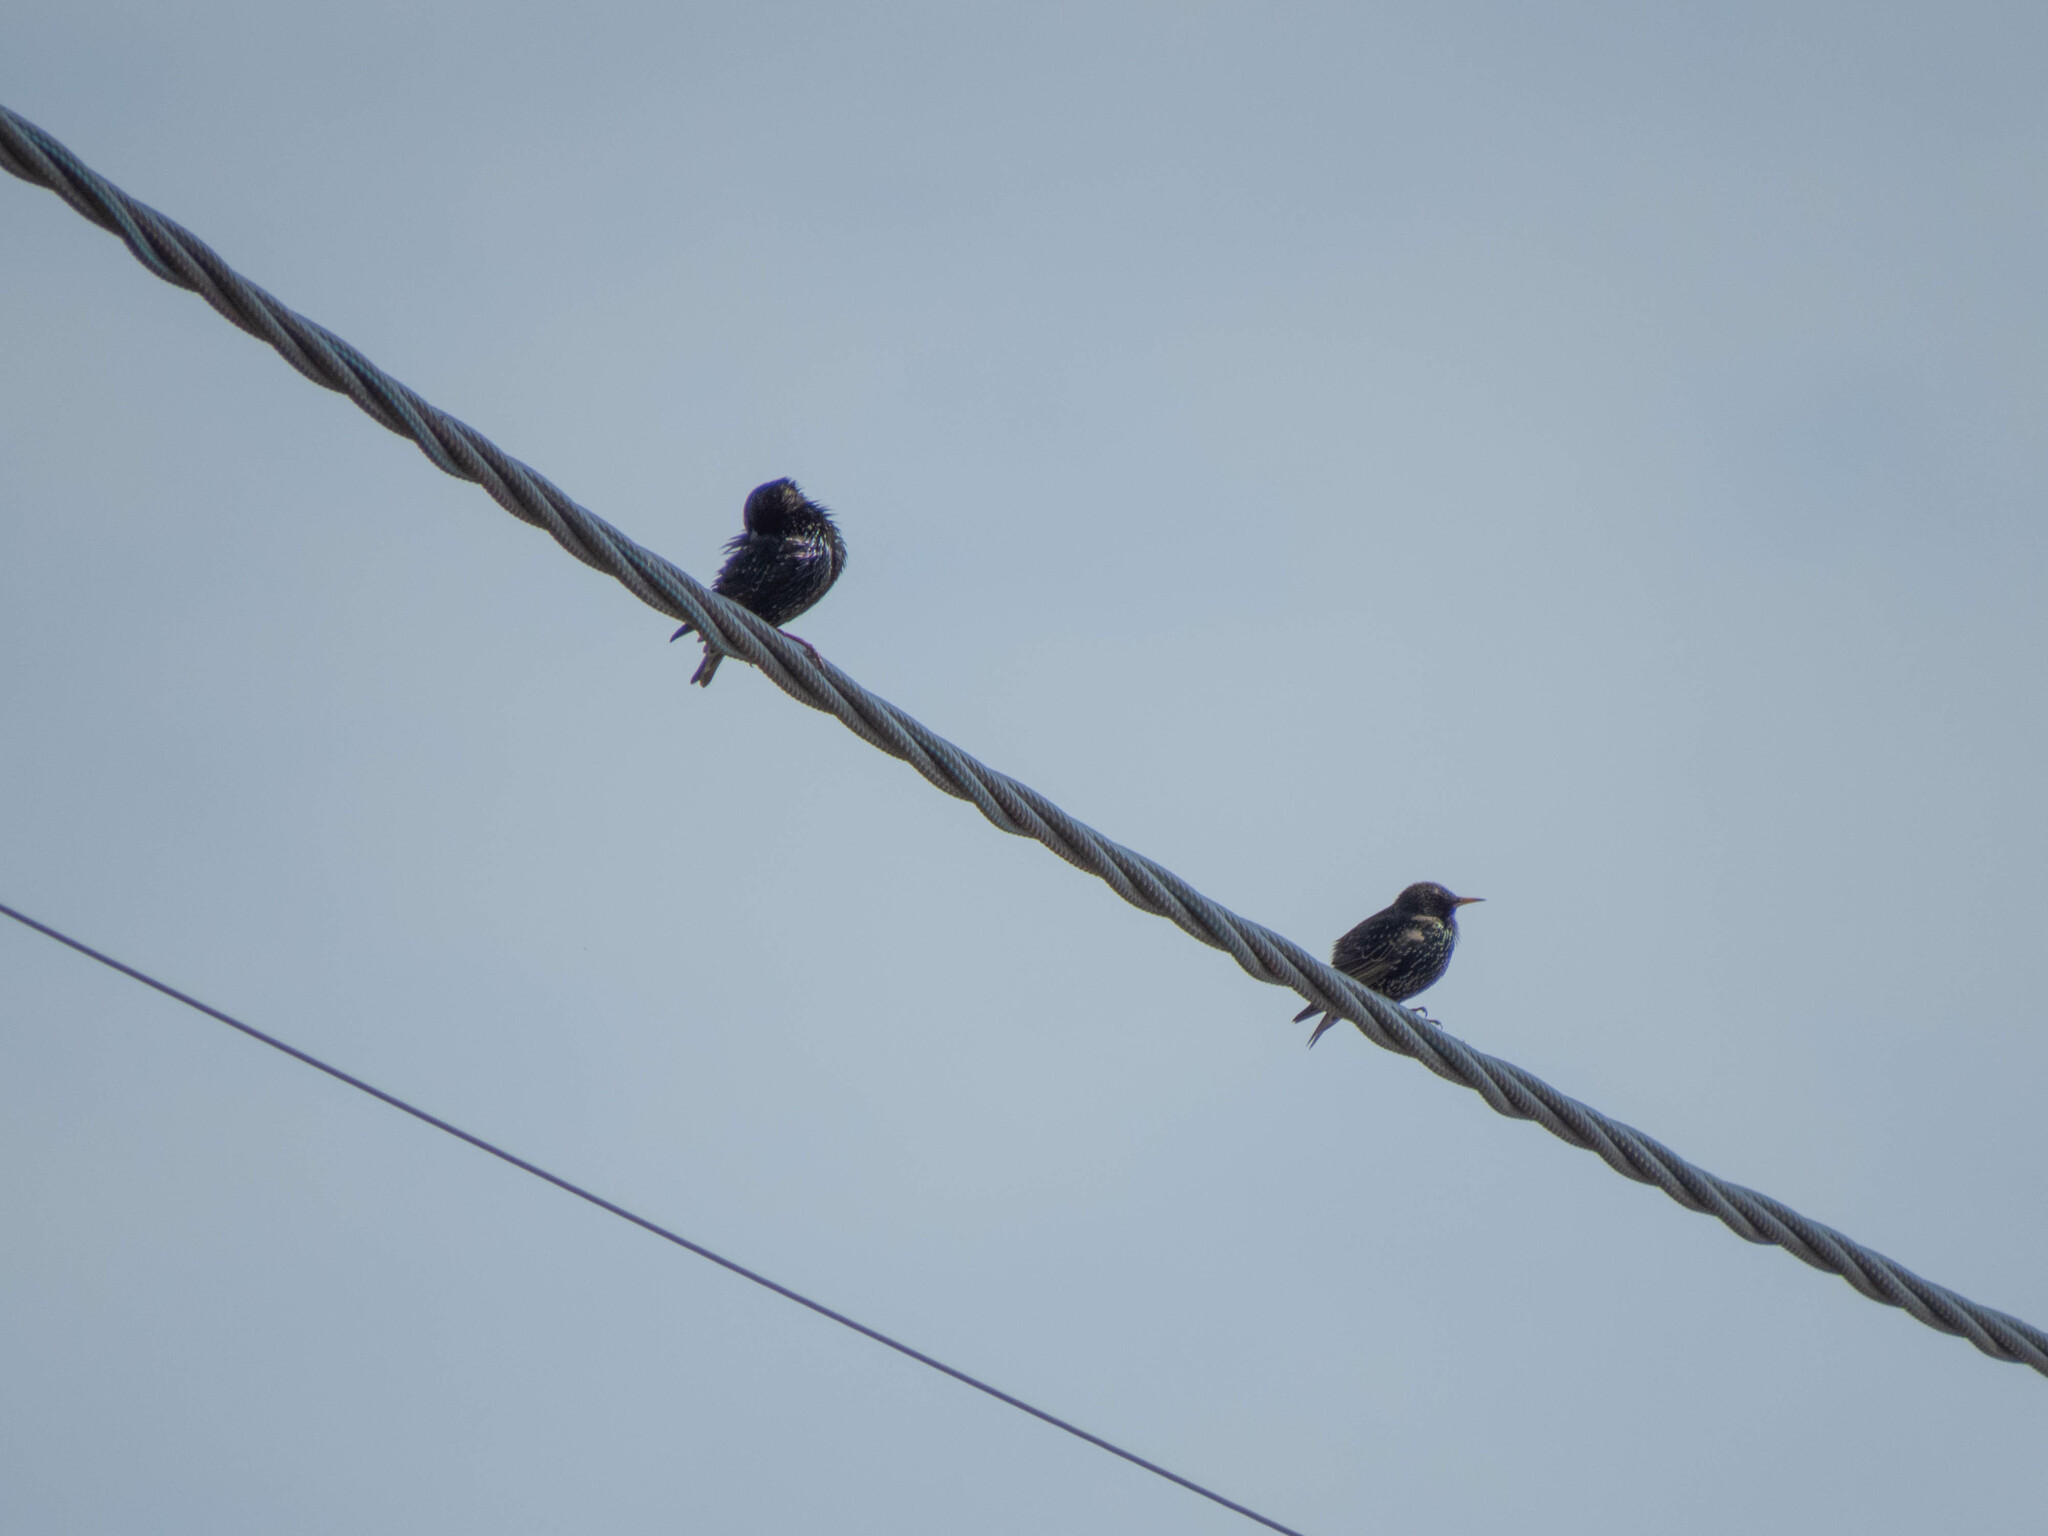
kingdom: Animalia
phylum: Chordata
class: Aves
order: Passeriformes
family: Sturnidae
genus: Sturnus
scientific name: Sturnus vulgaris
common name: Common starling
